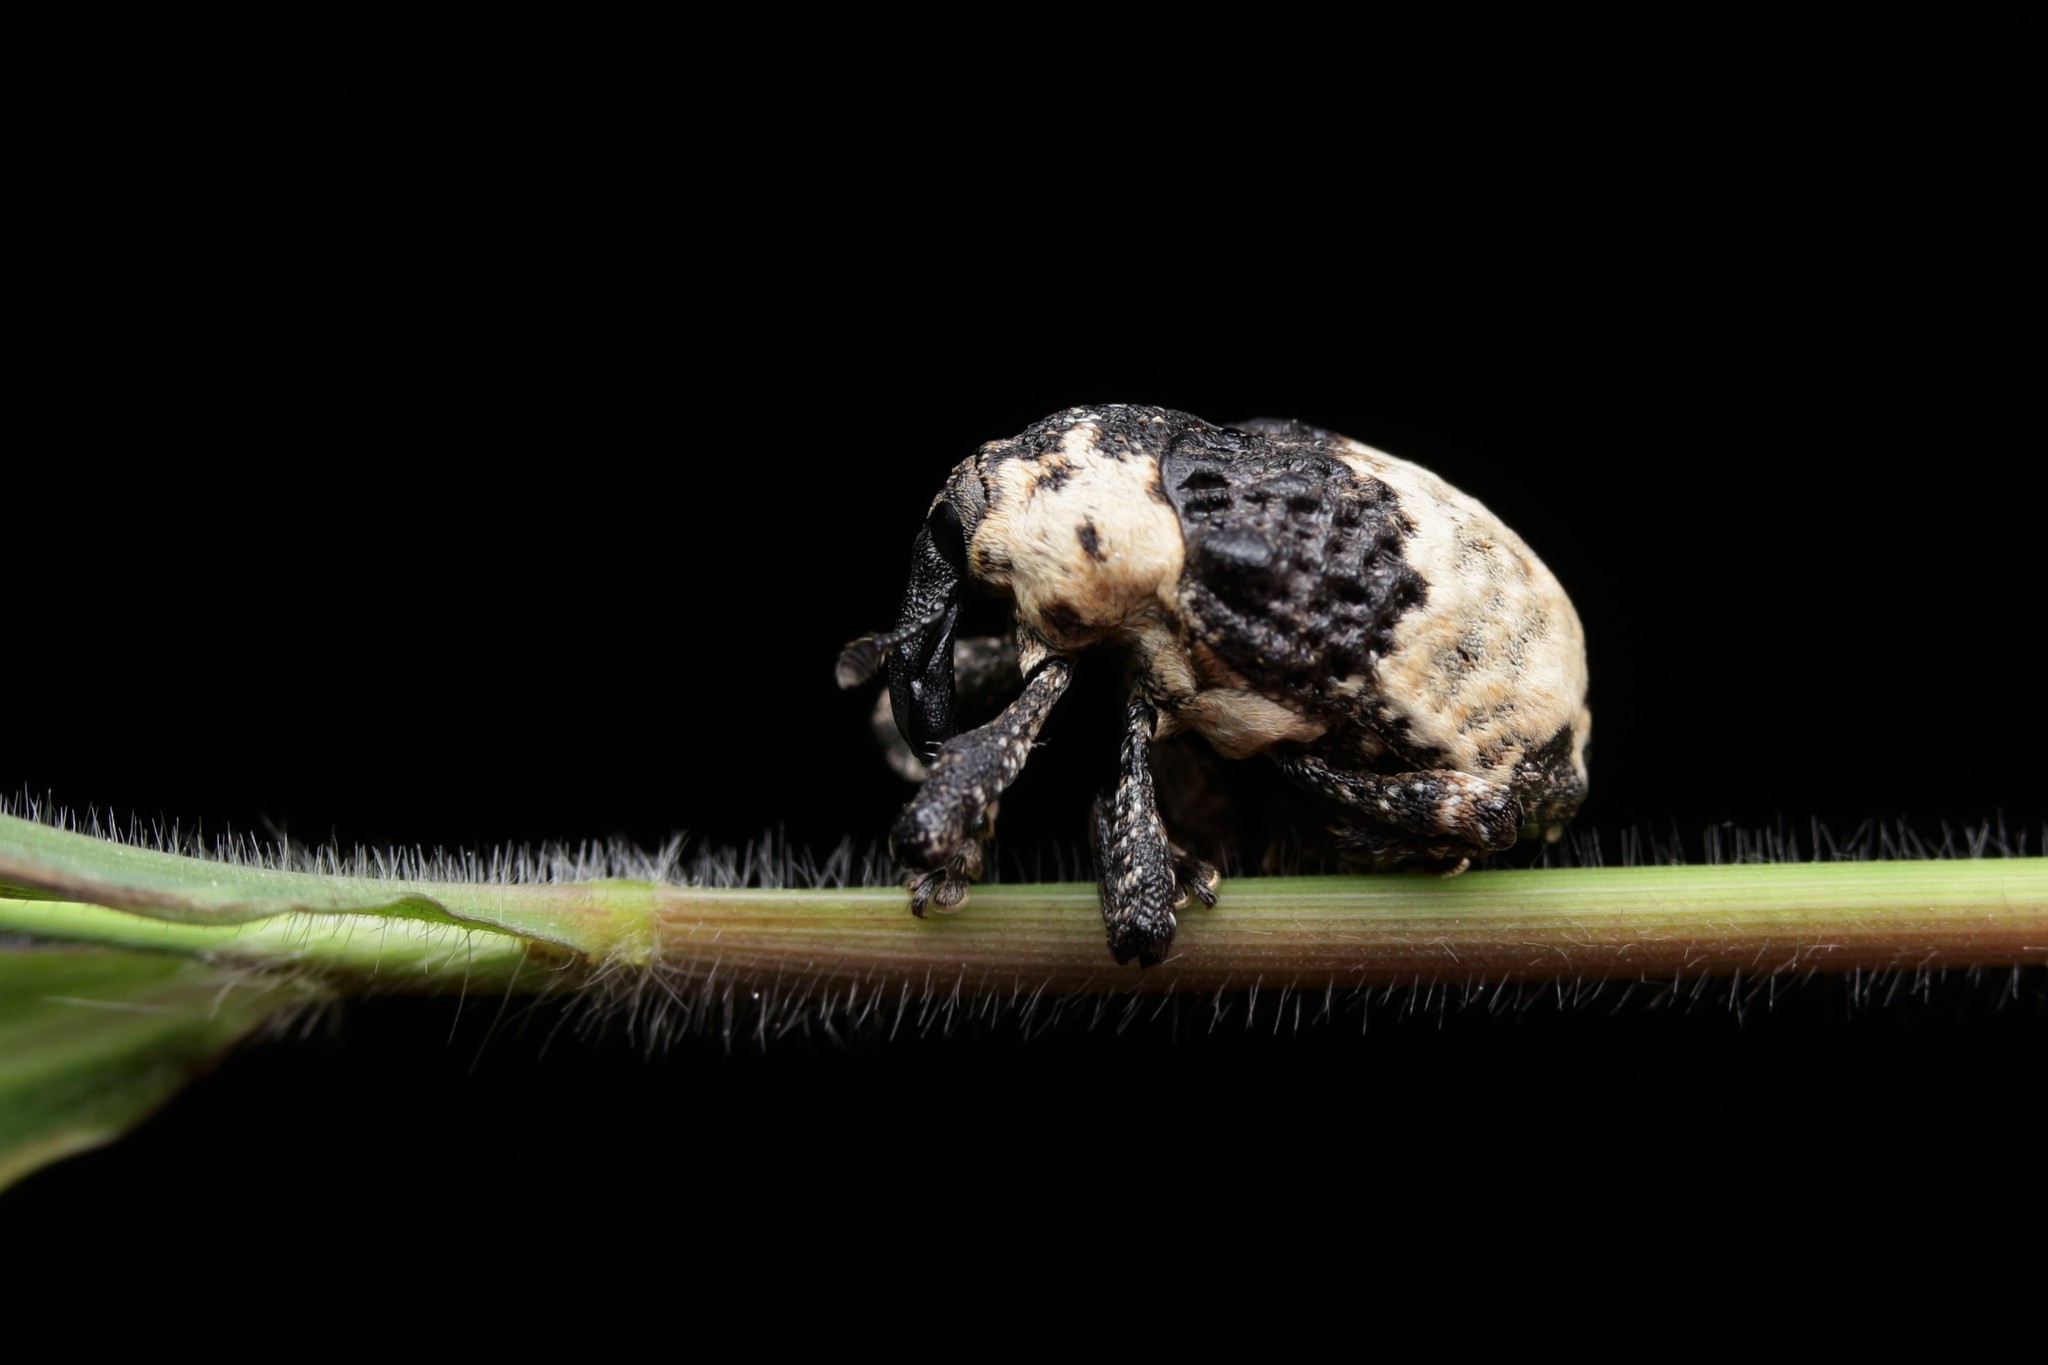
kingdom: Animalia
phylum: Arthropoda
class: Insecta
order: Coleoptera
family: Curculionidae
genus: Alcides
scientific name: Alcides trifidus
